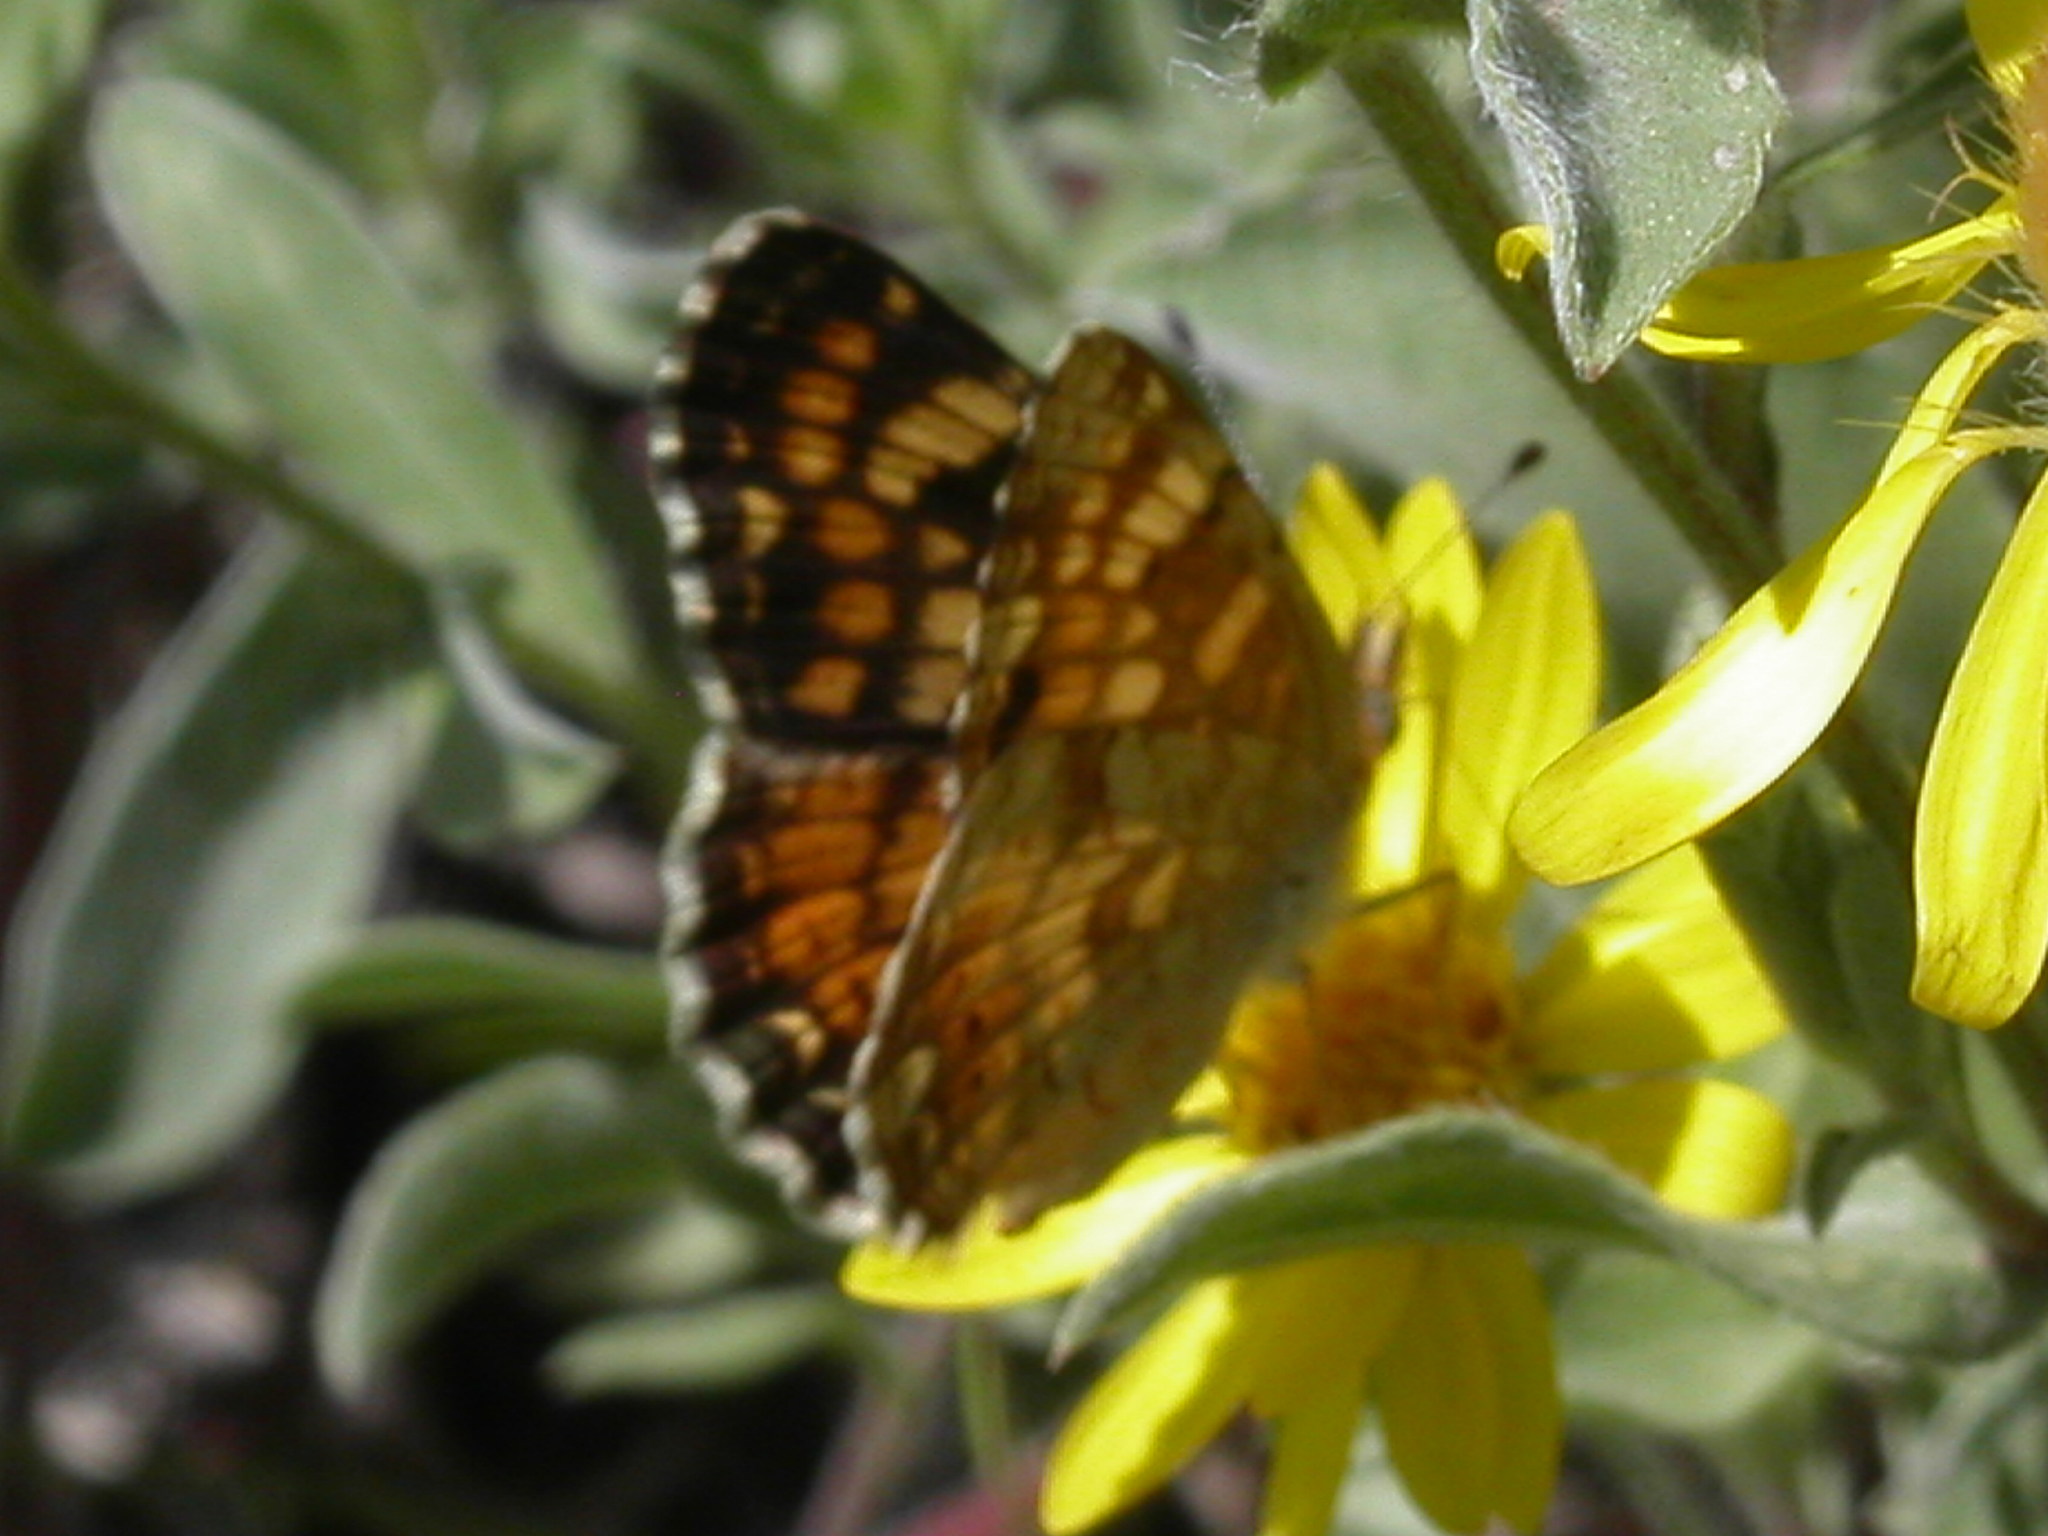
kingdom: Animalia
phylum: Arthropoda
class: Insecta
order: Lepidoptera
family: Nymphalidae
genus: Phyciodes
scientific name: Phyciodes tharos
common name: Pearl crescent
